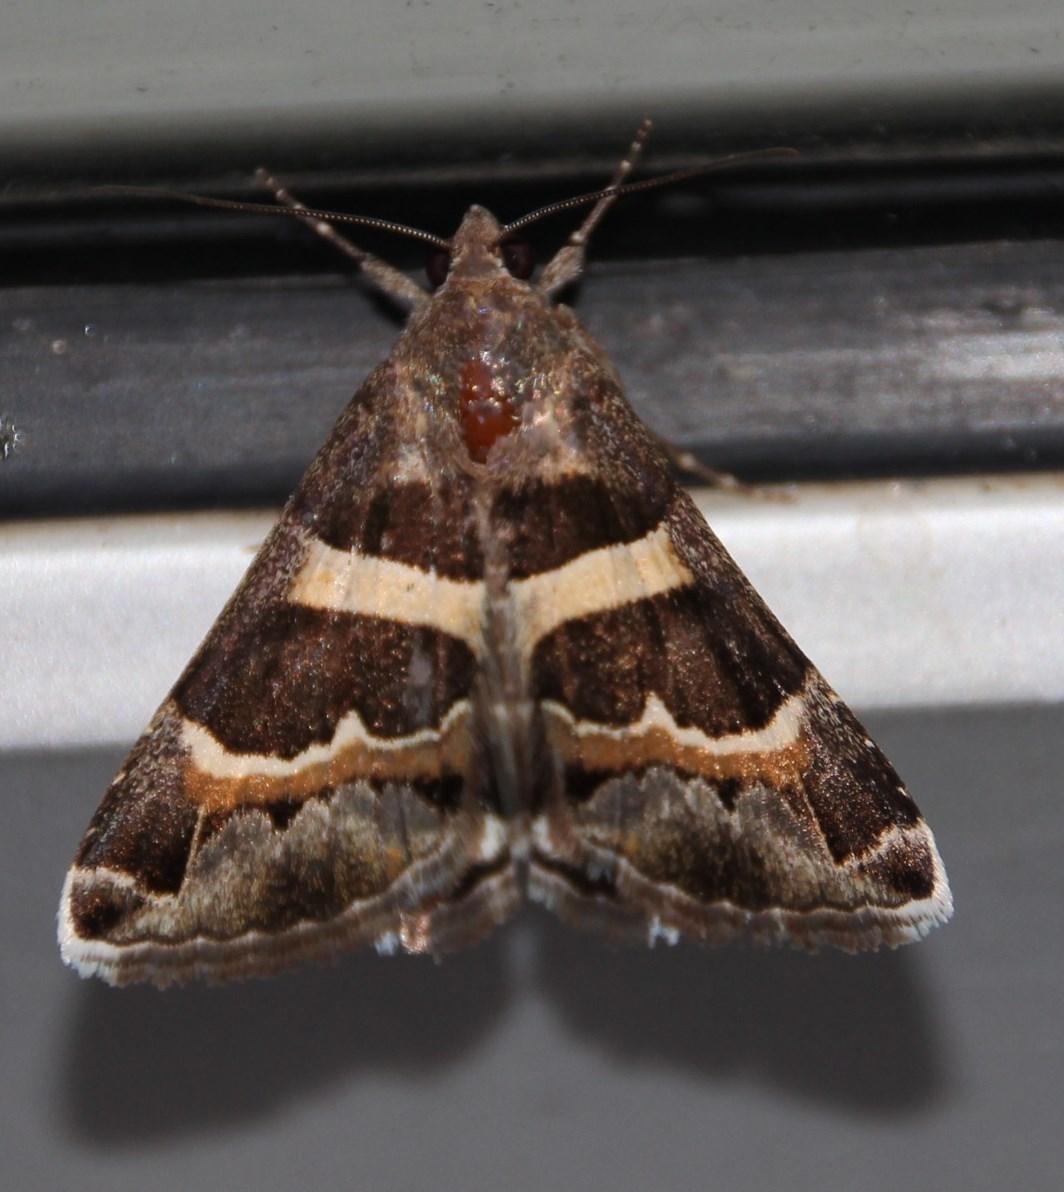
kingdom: Animalia
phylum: Arthropoda
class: Insecta
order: Lepidoptera
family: Erebidae
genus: Grammodes
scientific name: Grammodes stolida
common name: Geometrician
